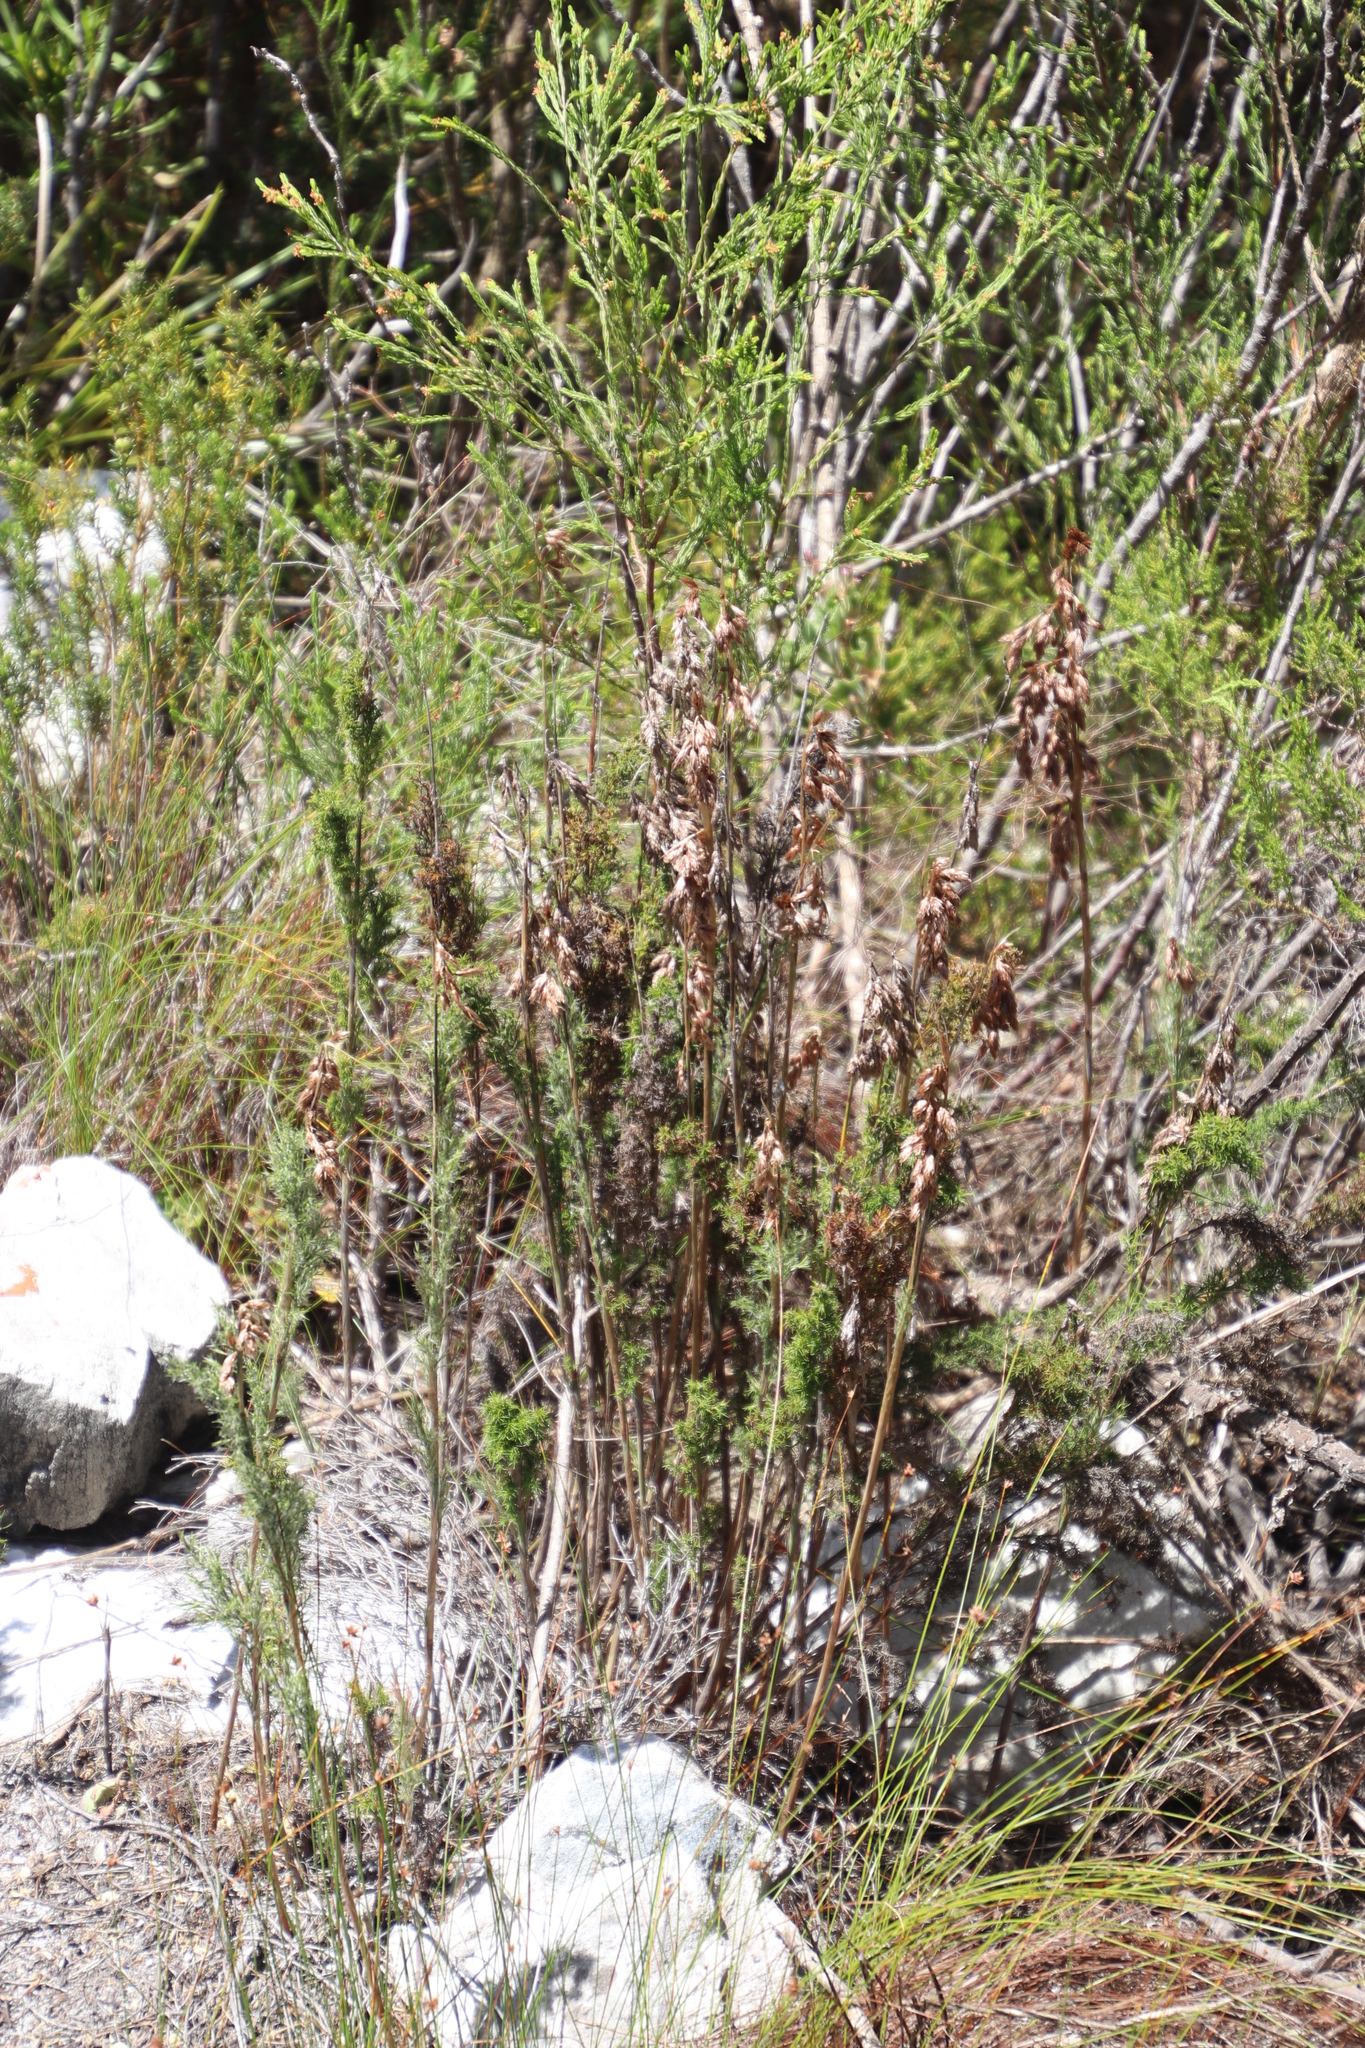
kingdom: Plantae
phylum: Tracheophyta
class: Liliopsida
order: Poales
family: Restionaceae
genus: Thamnochortus
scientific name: Thamnochortus fruticosus
